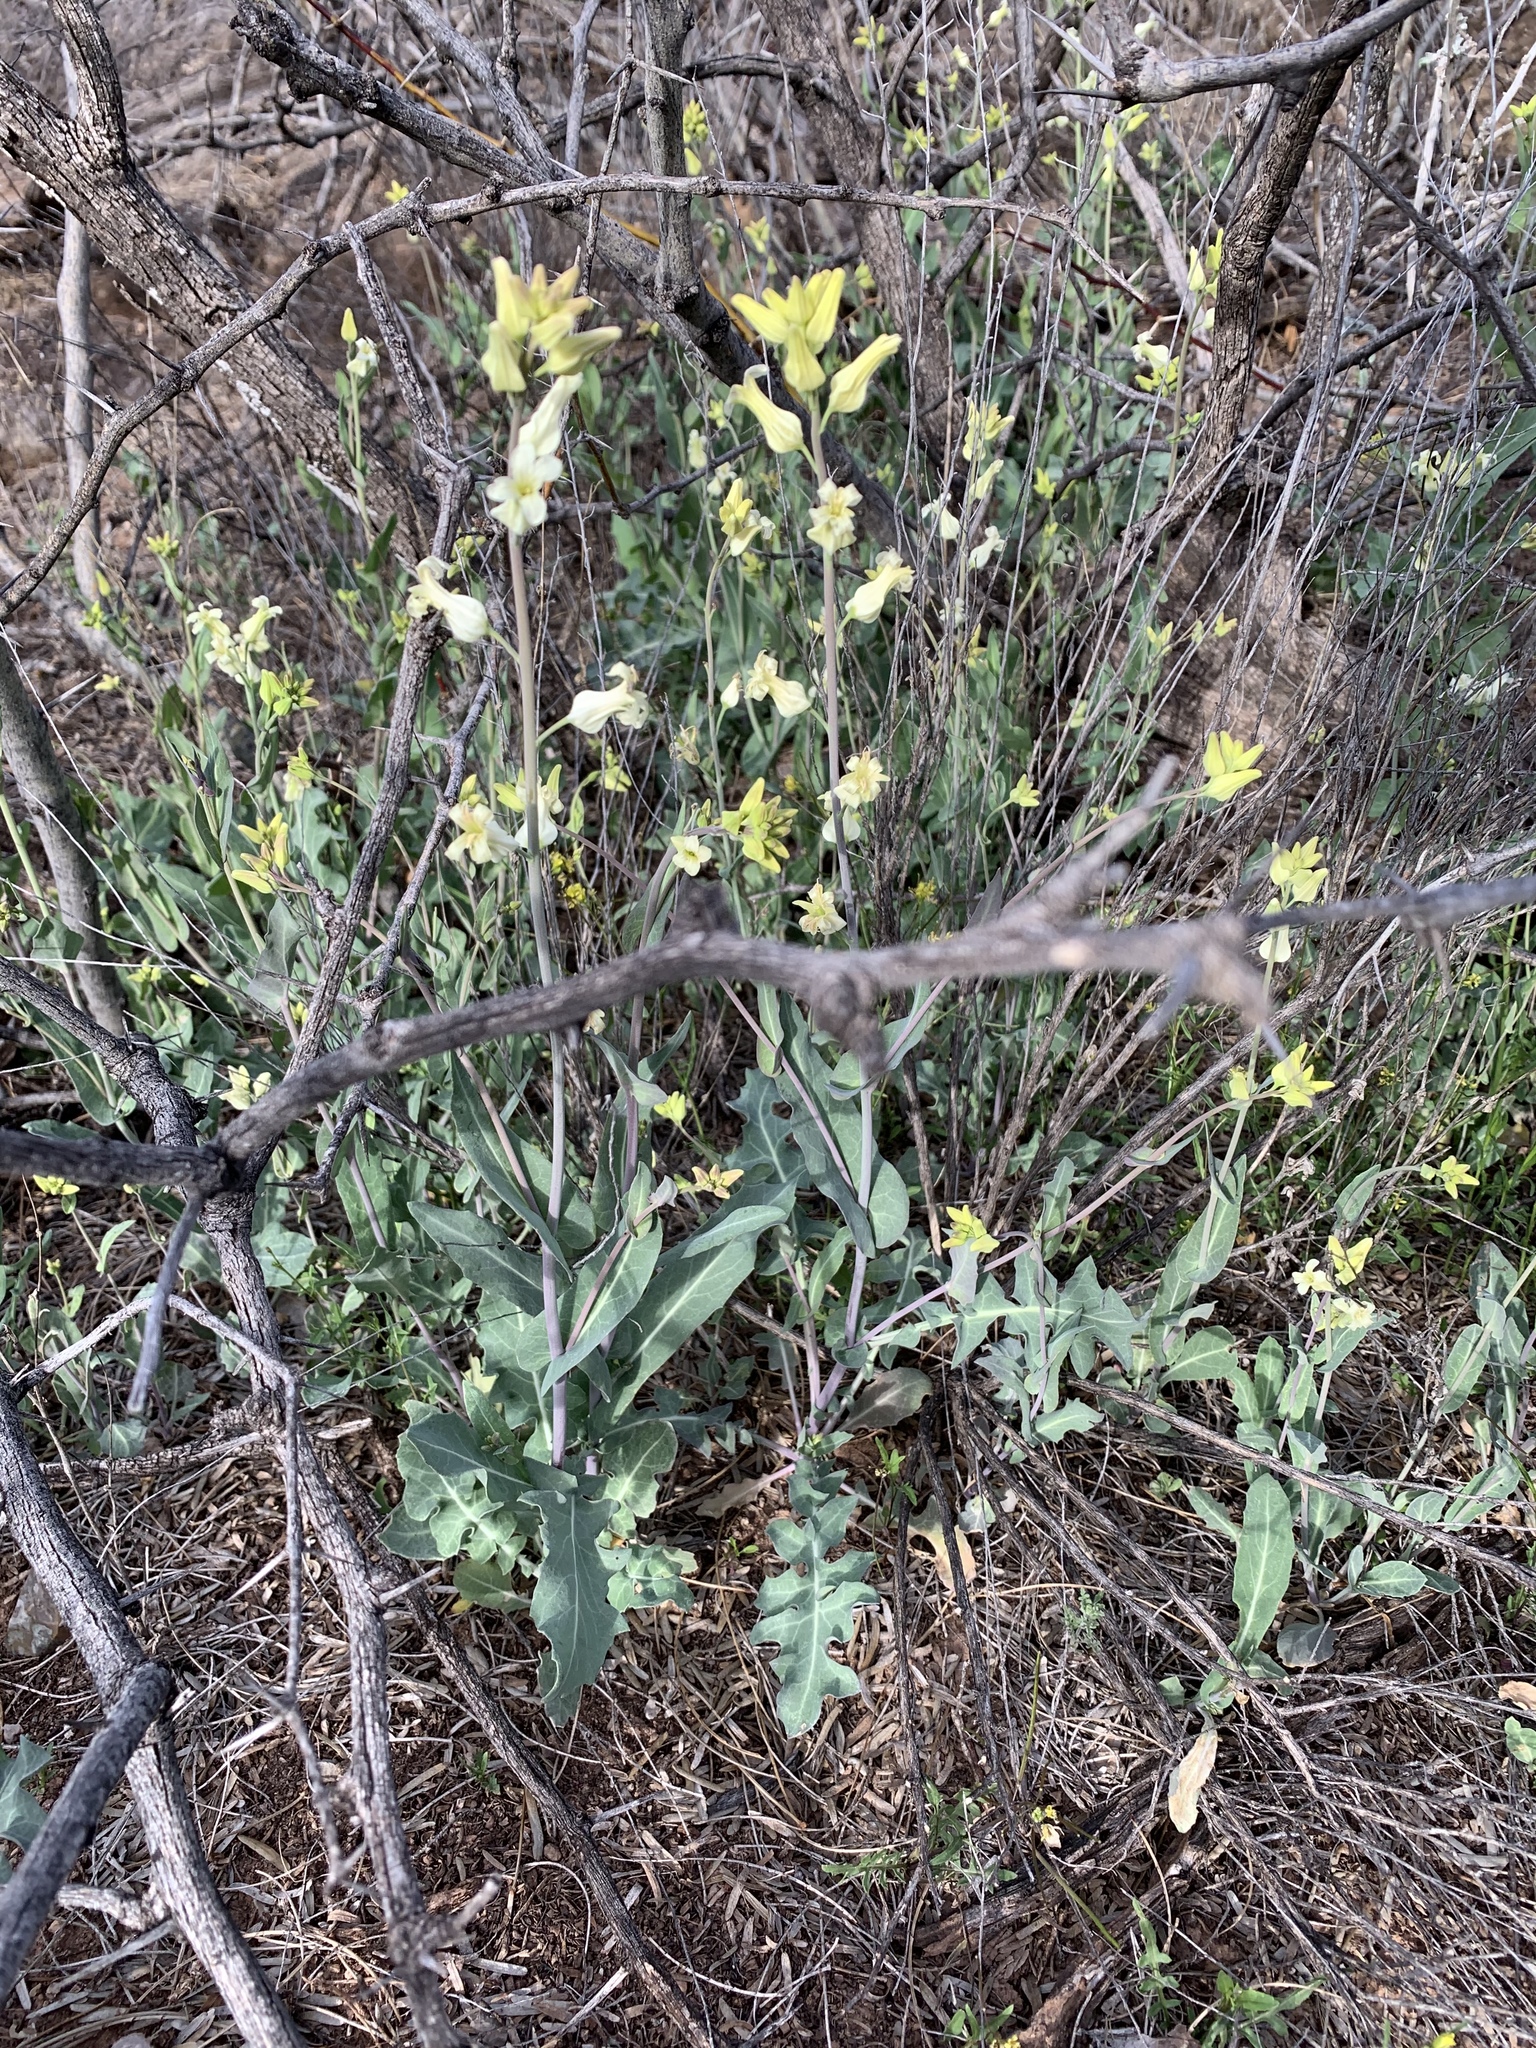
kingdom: Plantae
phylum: Tracheophyta
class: Magnoliopsida
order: Brassicales
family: Brassicaceae
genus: Streptanthus
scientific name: Streptanthus carinatus
